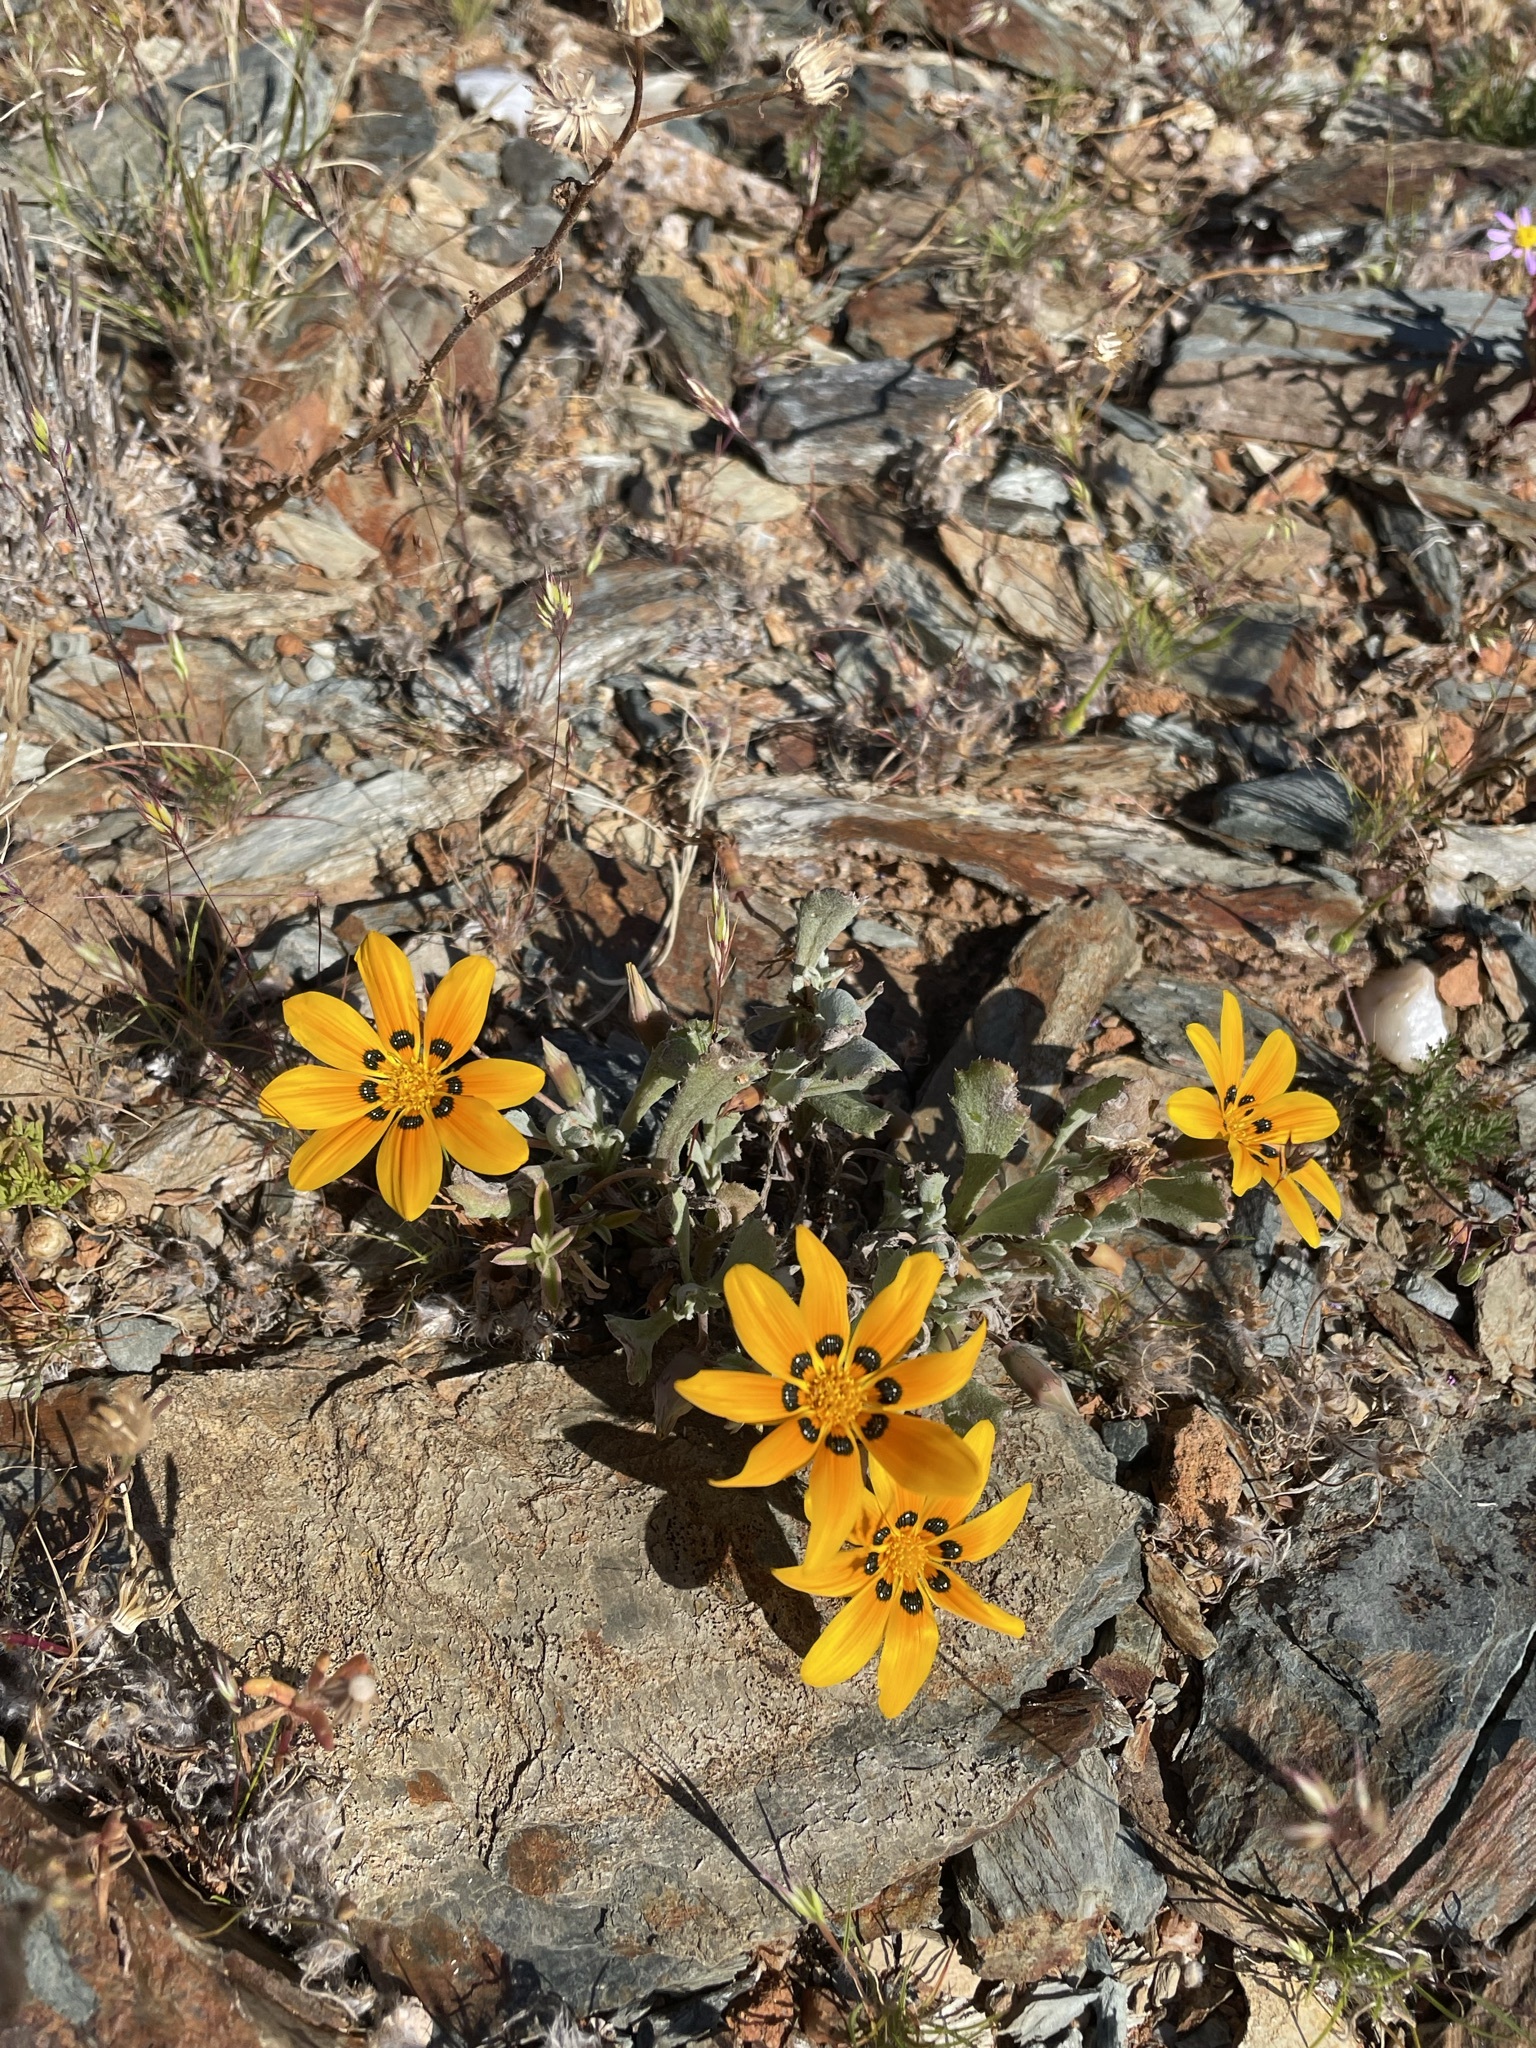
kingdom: Plantae
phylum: Tracheophyta
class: Magnoliopsida
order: Asterales
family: Asteraceae
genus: Gazania
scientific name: Gazania lichtensteinii
